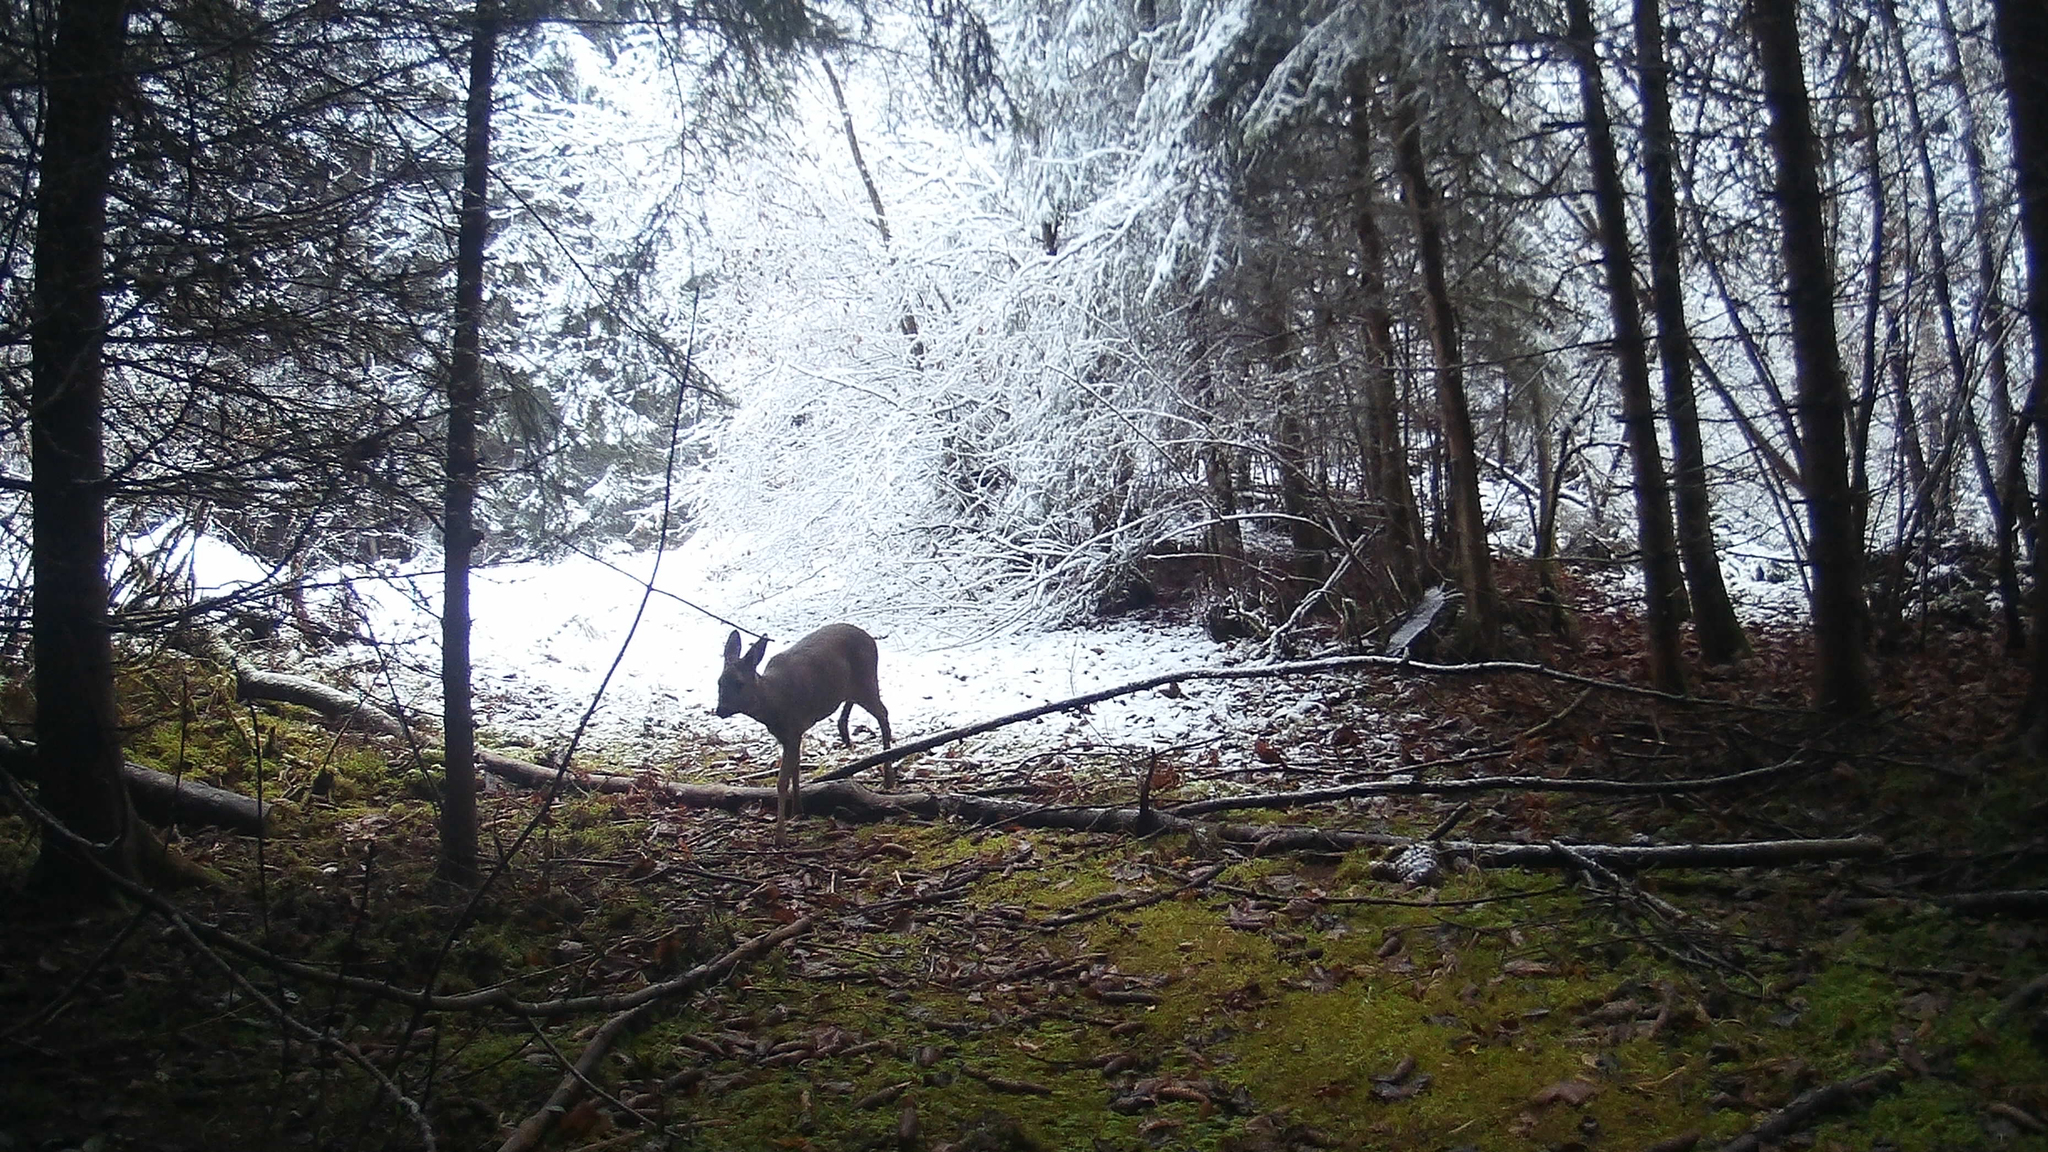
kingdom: Animalia
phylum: Chordata
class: Mammalia
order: Artiodactyla
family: Cervidae
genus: Capreolus
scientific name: Capreolus capreolus
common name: Western roe deer
